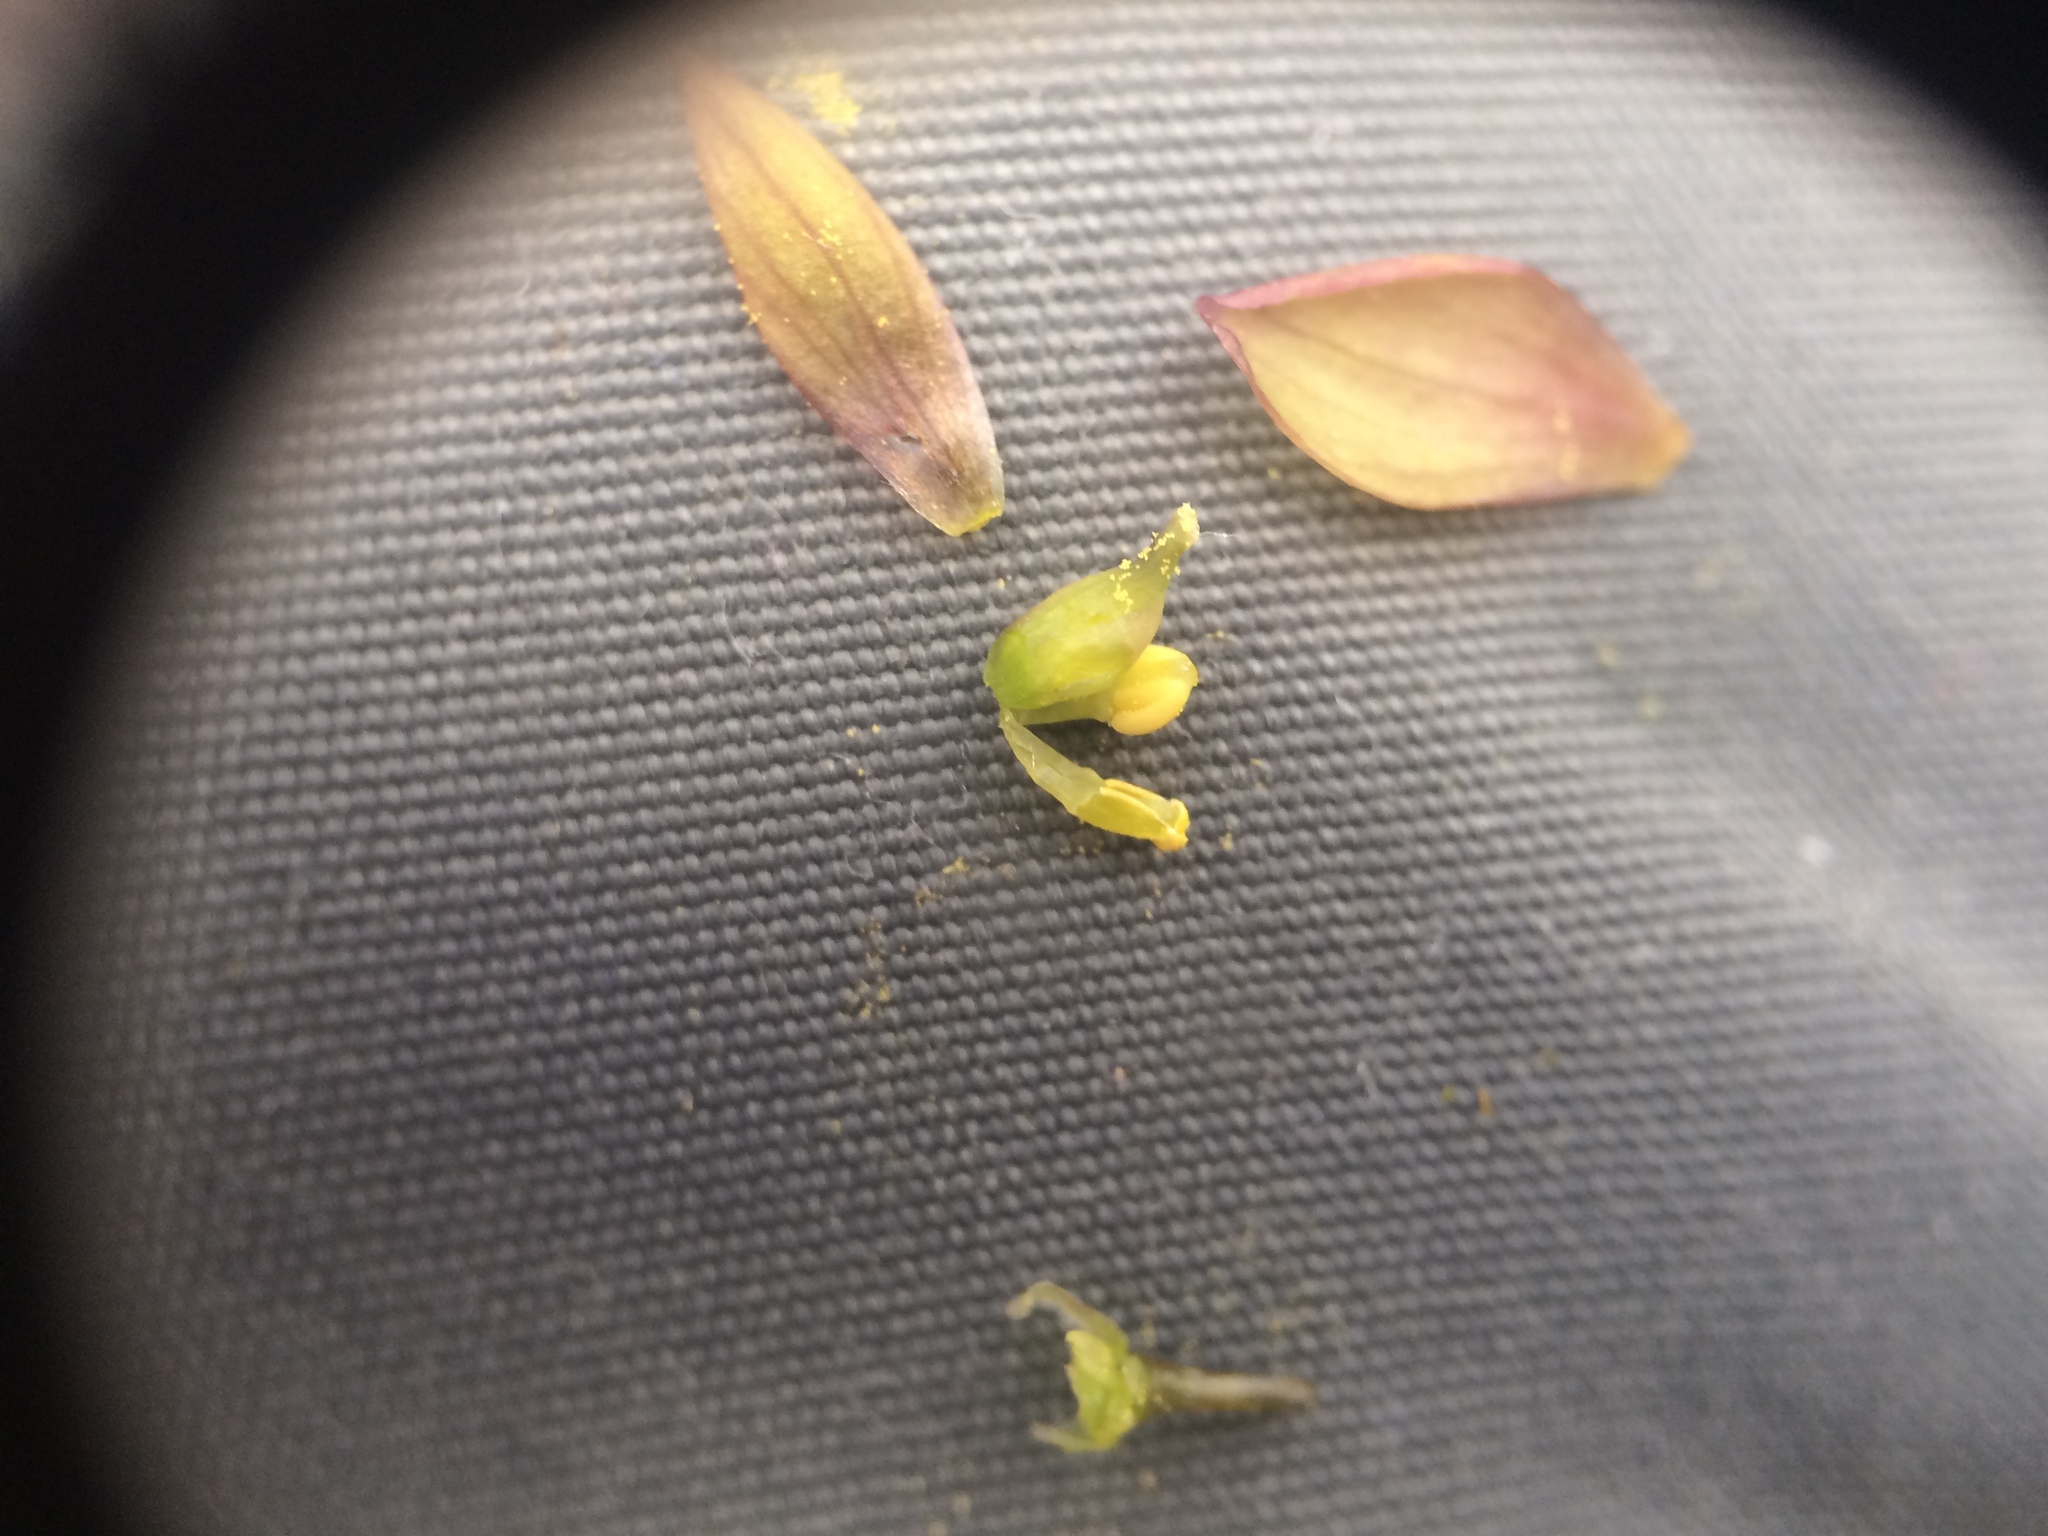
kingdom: Plantae
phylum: Tracheophyta
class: Magnoliopsida
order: Ranunculales
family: Berberidaceae
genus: Caulophyllum
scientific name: Caulophyllum giganteum
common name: Blue cohosh
